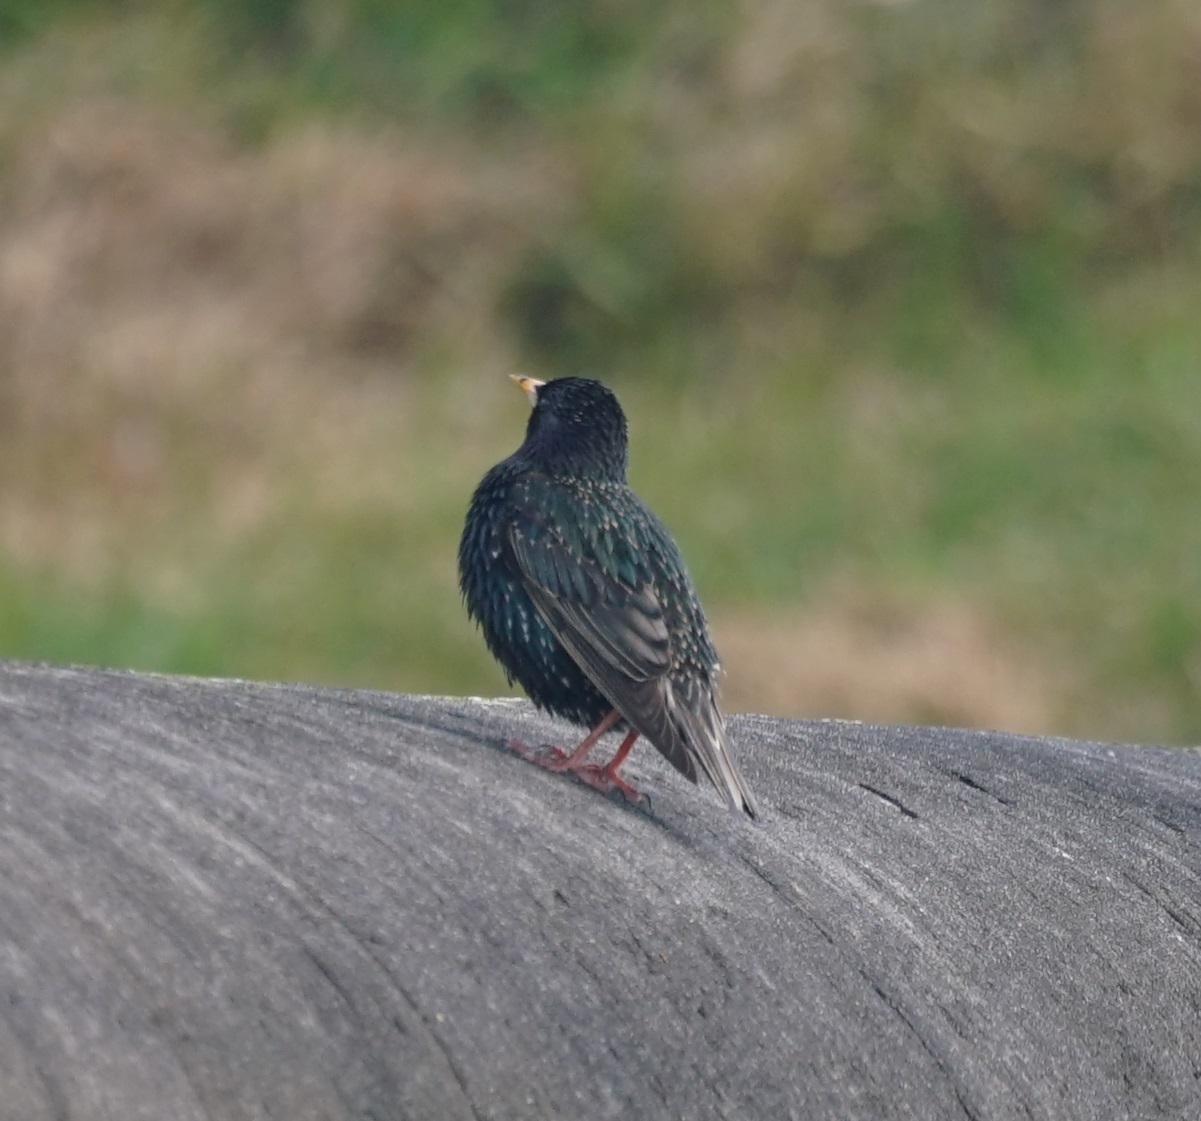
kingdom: Animalia
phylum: Chordata
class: Aves
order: Passeriformes
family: Sturnidae
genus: Sturnus
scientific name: Sturnus vulgaris
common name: Common starling
